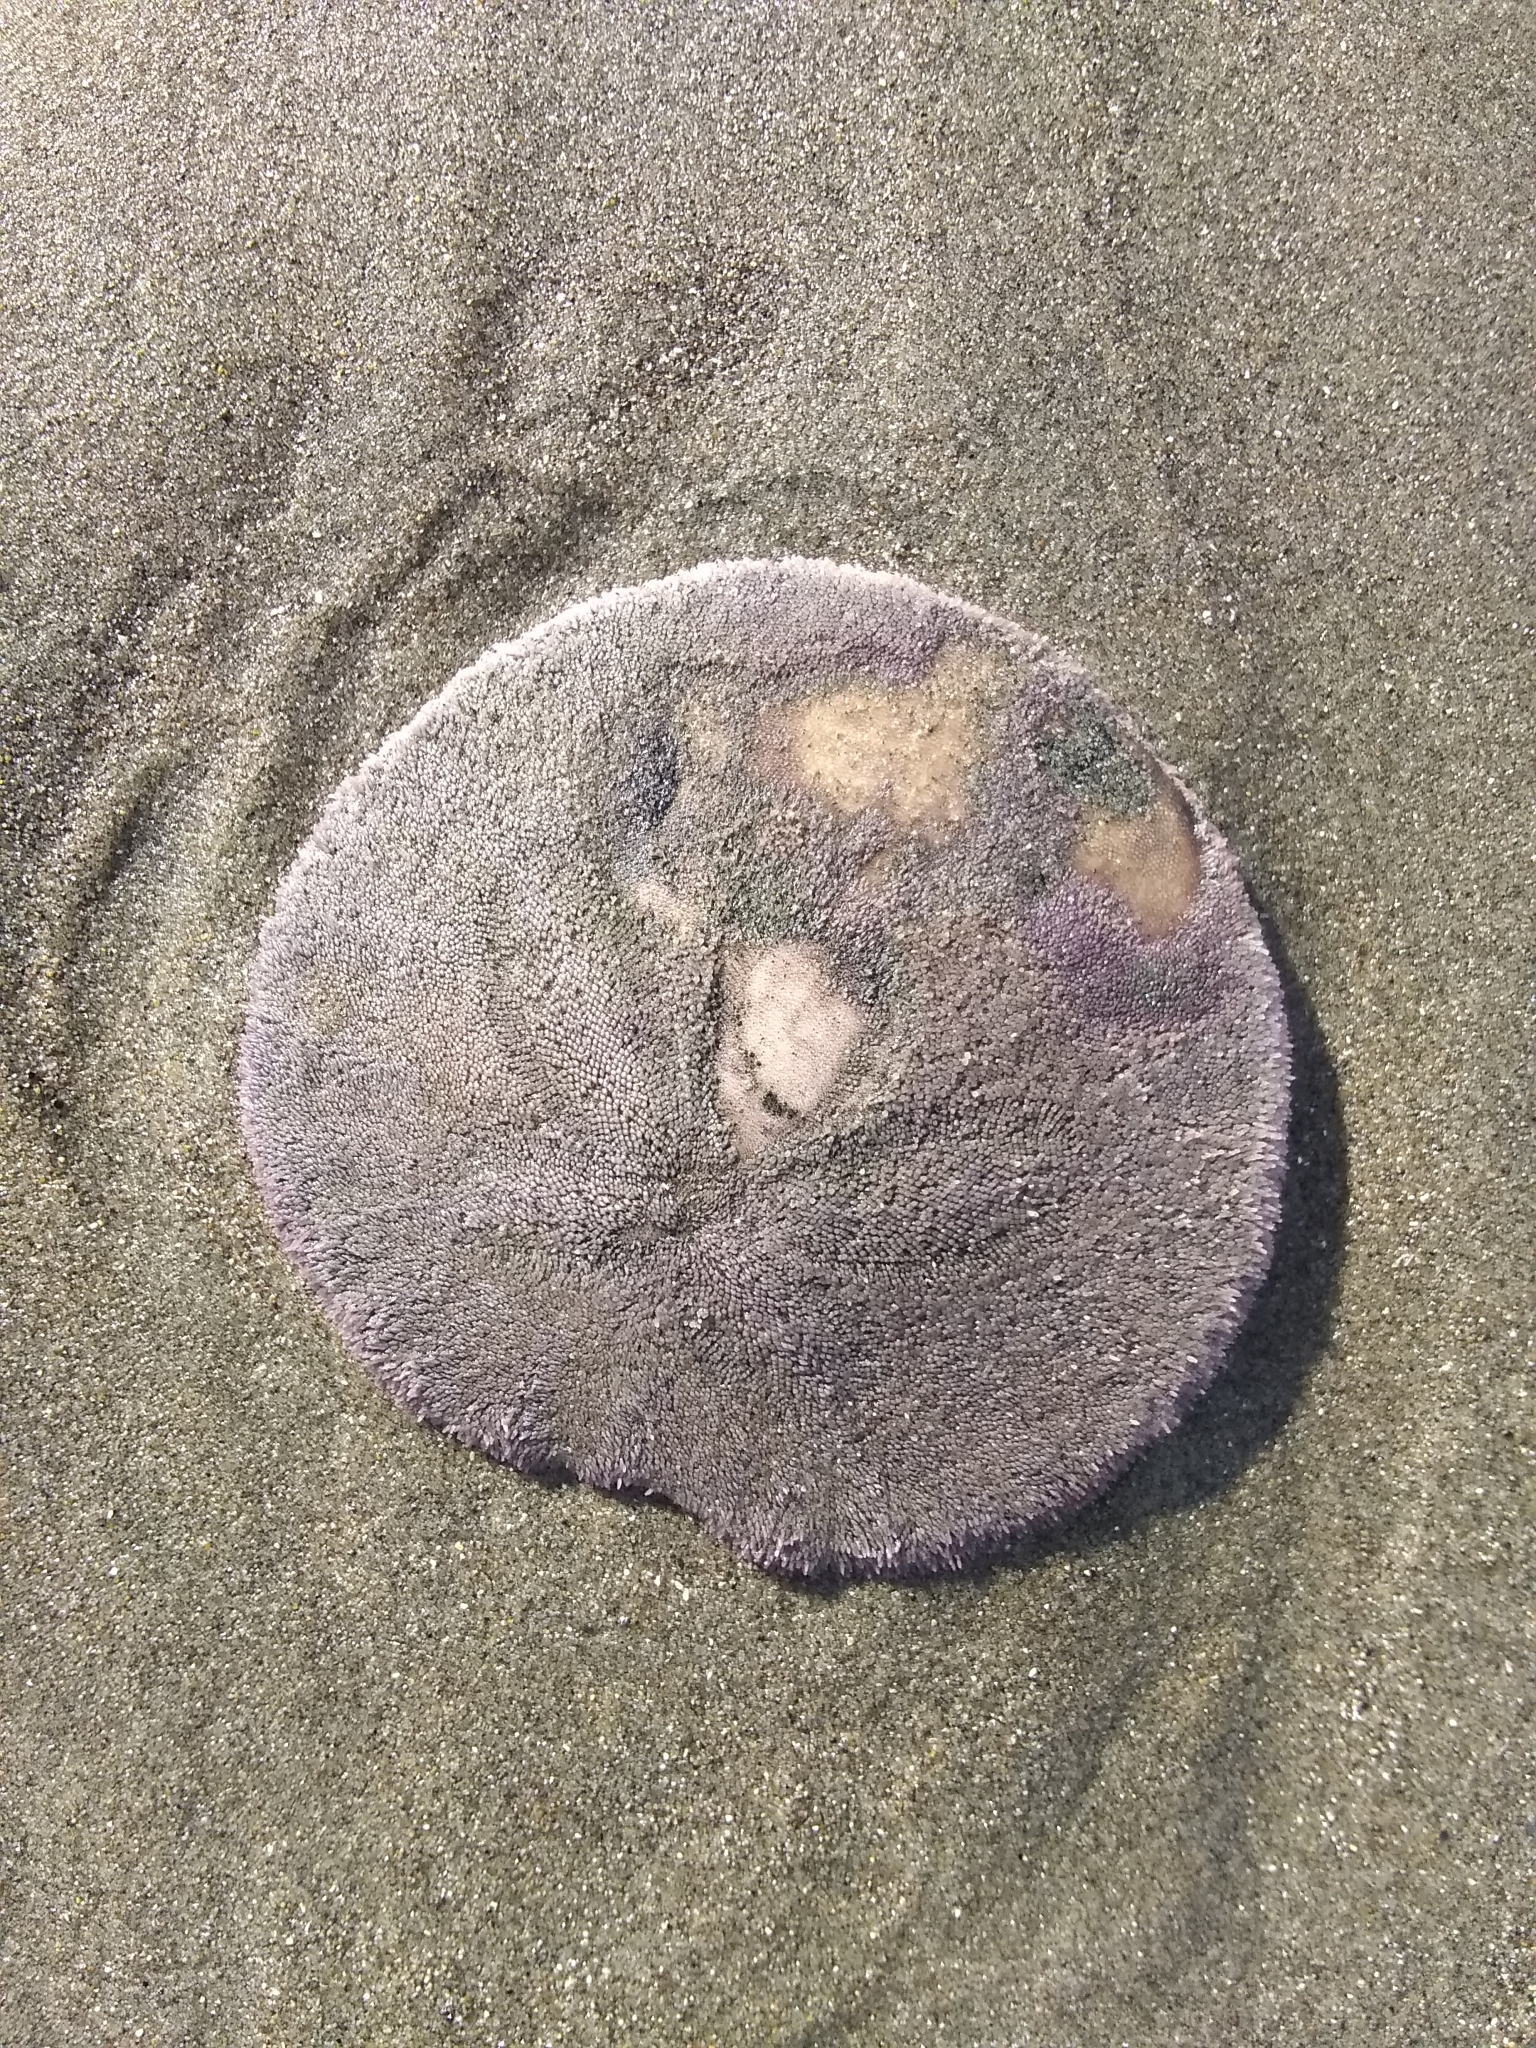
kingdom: Animalia
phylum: Echinodermata
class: Echinoidea
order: Echinolampadacea
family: Dendrasteridae
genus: Dendraster
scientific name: Dendraster excentricus
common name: Eccentric sand dollar sea urchin
